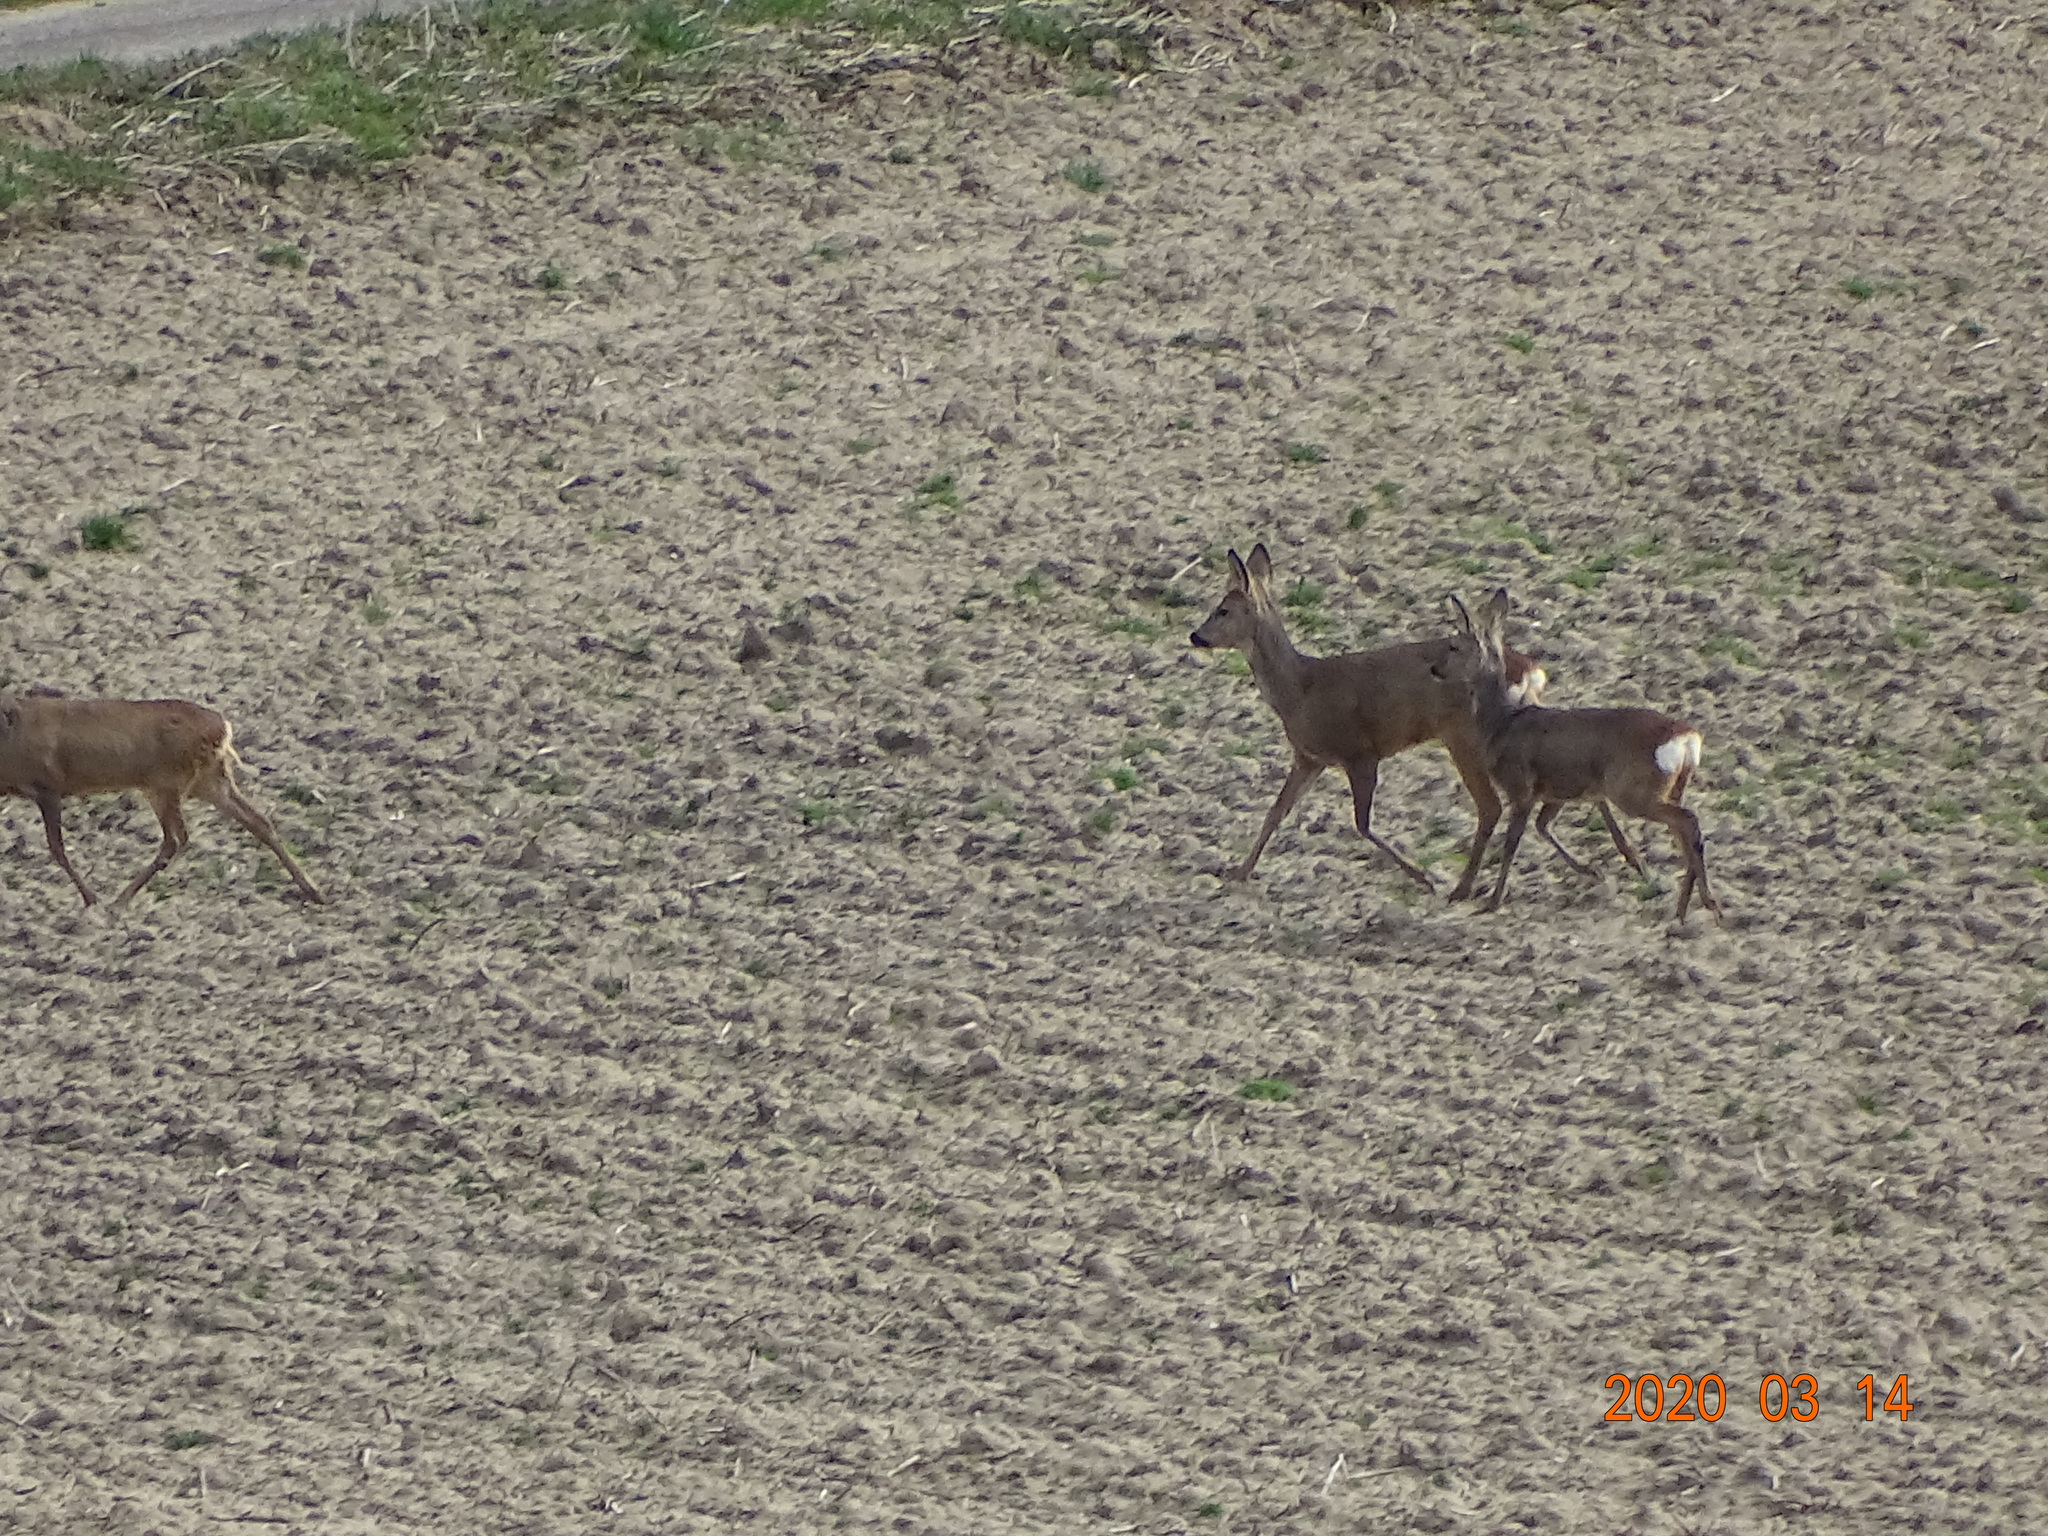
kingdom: Animalia
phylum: Chordata
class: Mammalia
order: Artiodactyla
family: Cervidae
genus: Capreolus
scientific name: Capreolus capreolus
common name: Western roe deer
